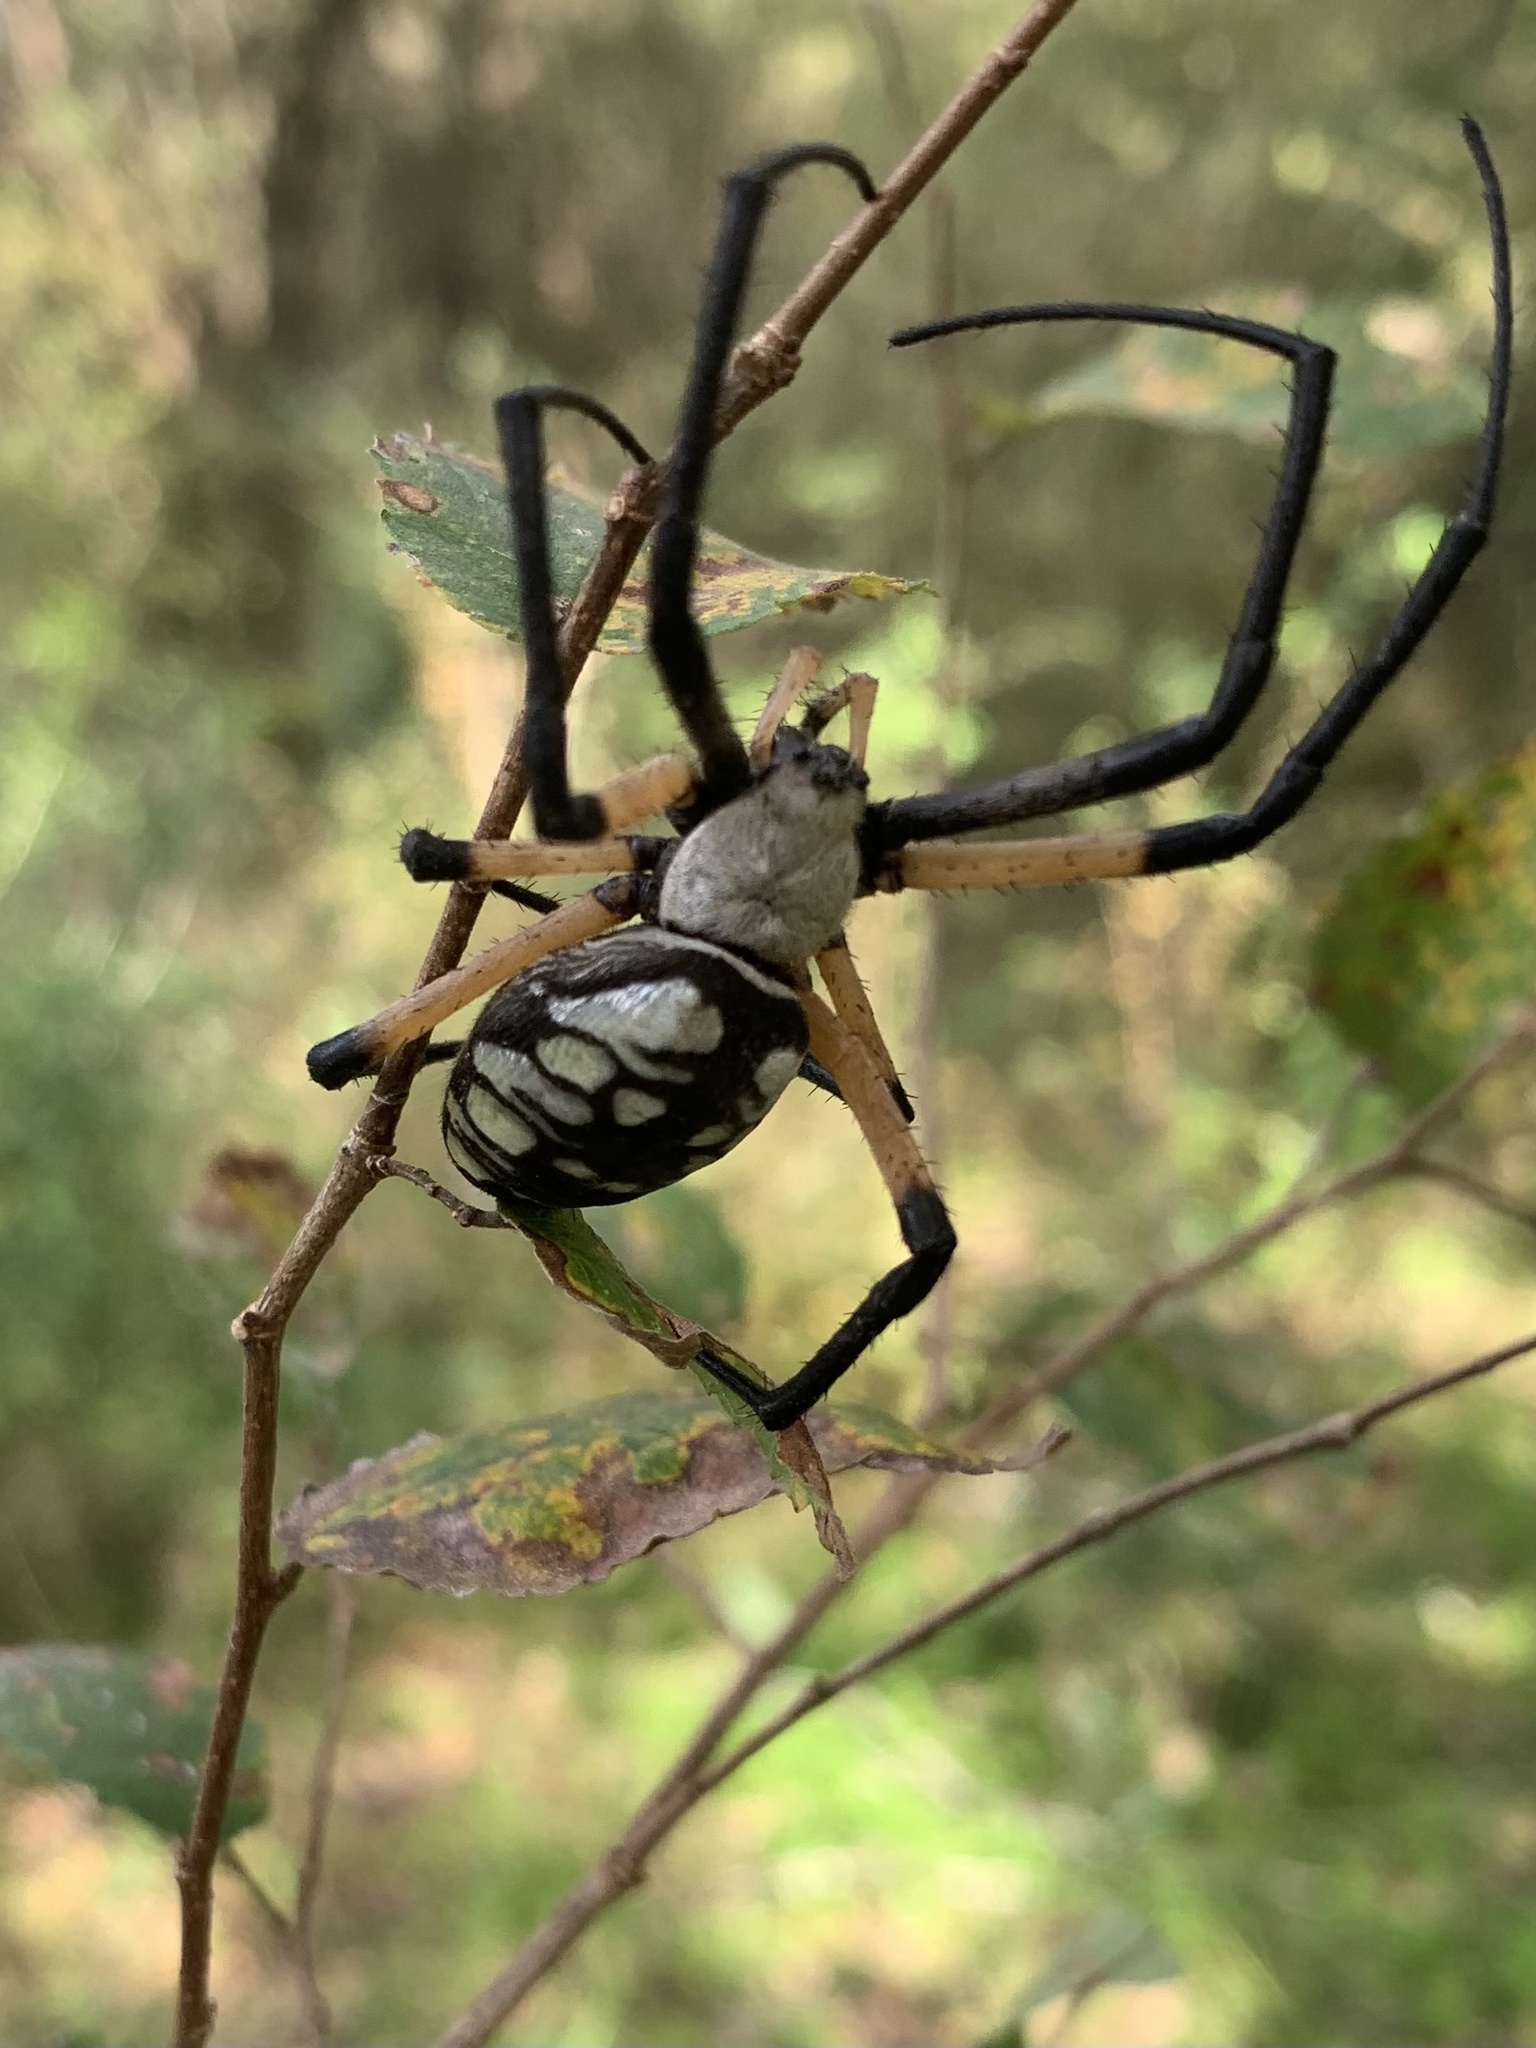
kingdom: Animalia
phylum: Arthropoda
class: Arachnida
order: Araneae
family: Araneidae
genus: Argiope
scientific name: Argiope aurantia
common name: Orb weavers
